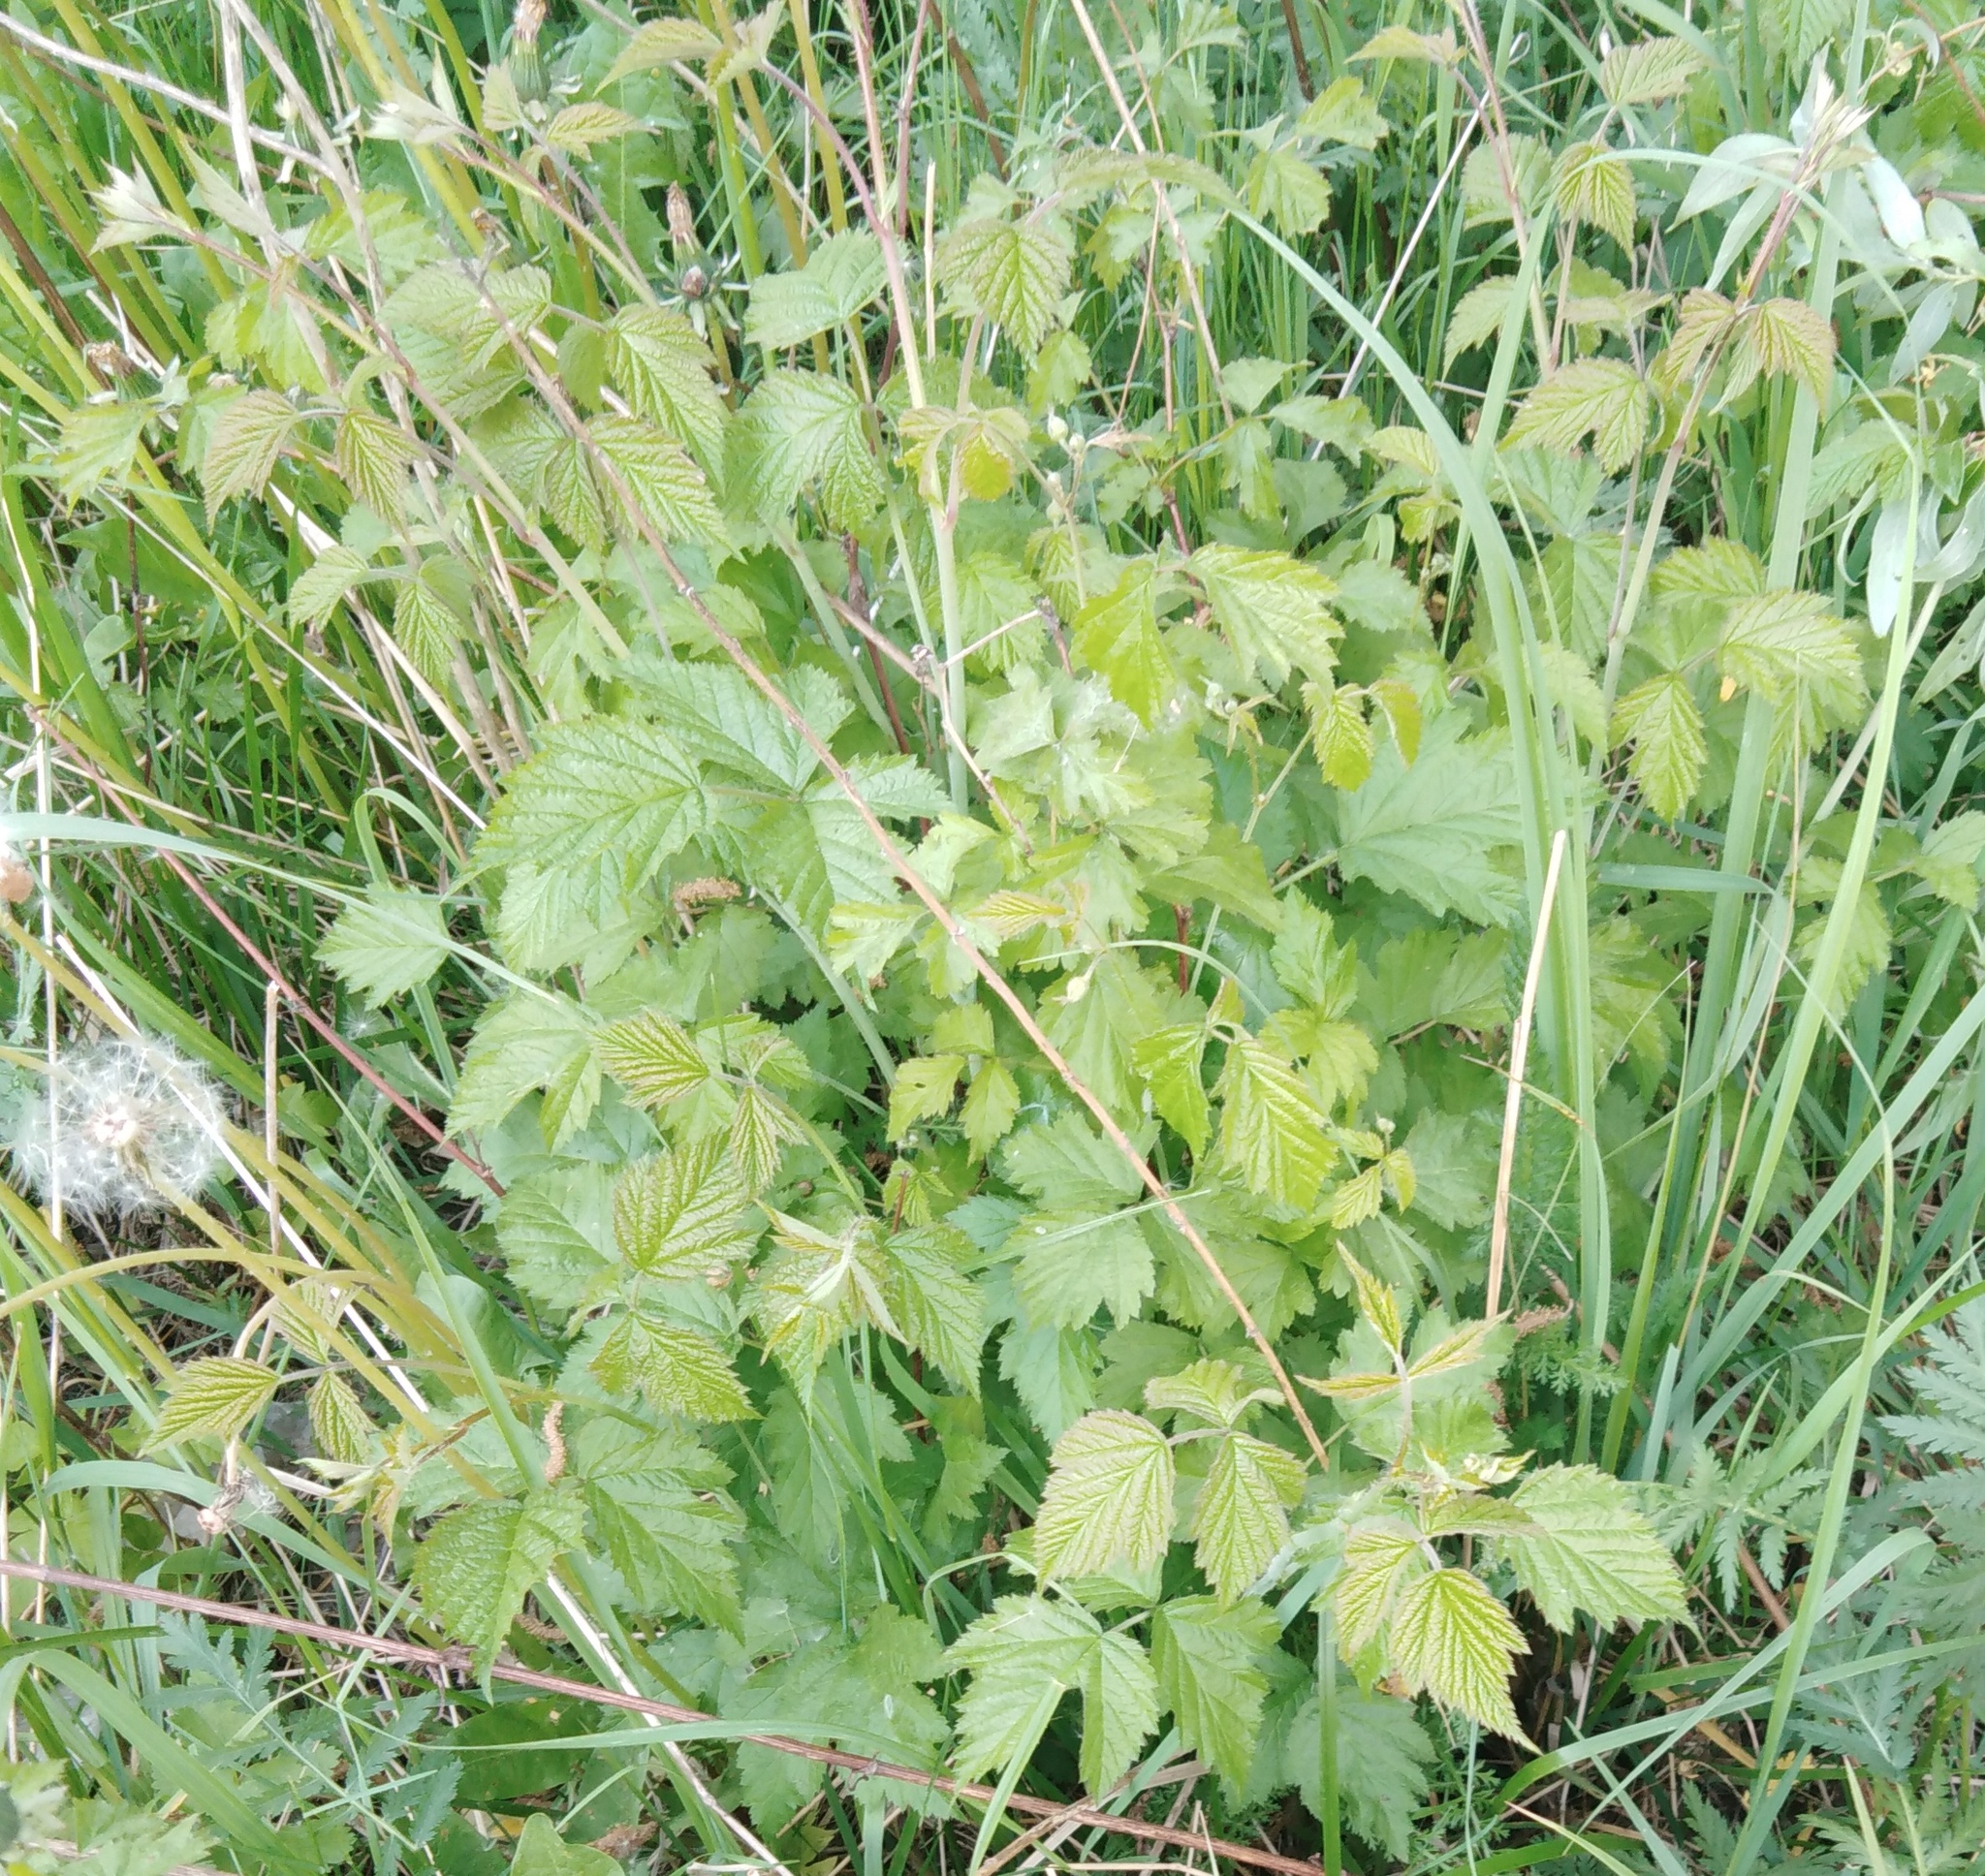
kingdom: Plantae
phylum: Tracheophyta
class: Magnoliopsida
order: Rosales
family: Rosaceae
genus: Rubus
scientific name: Rubus caesius
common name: Dewberry
